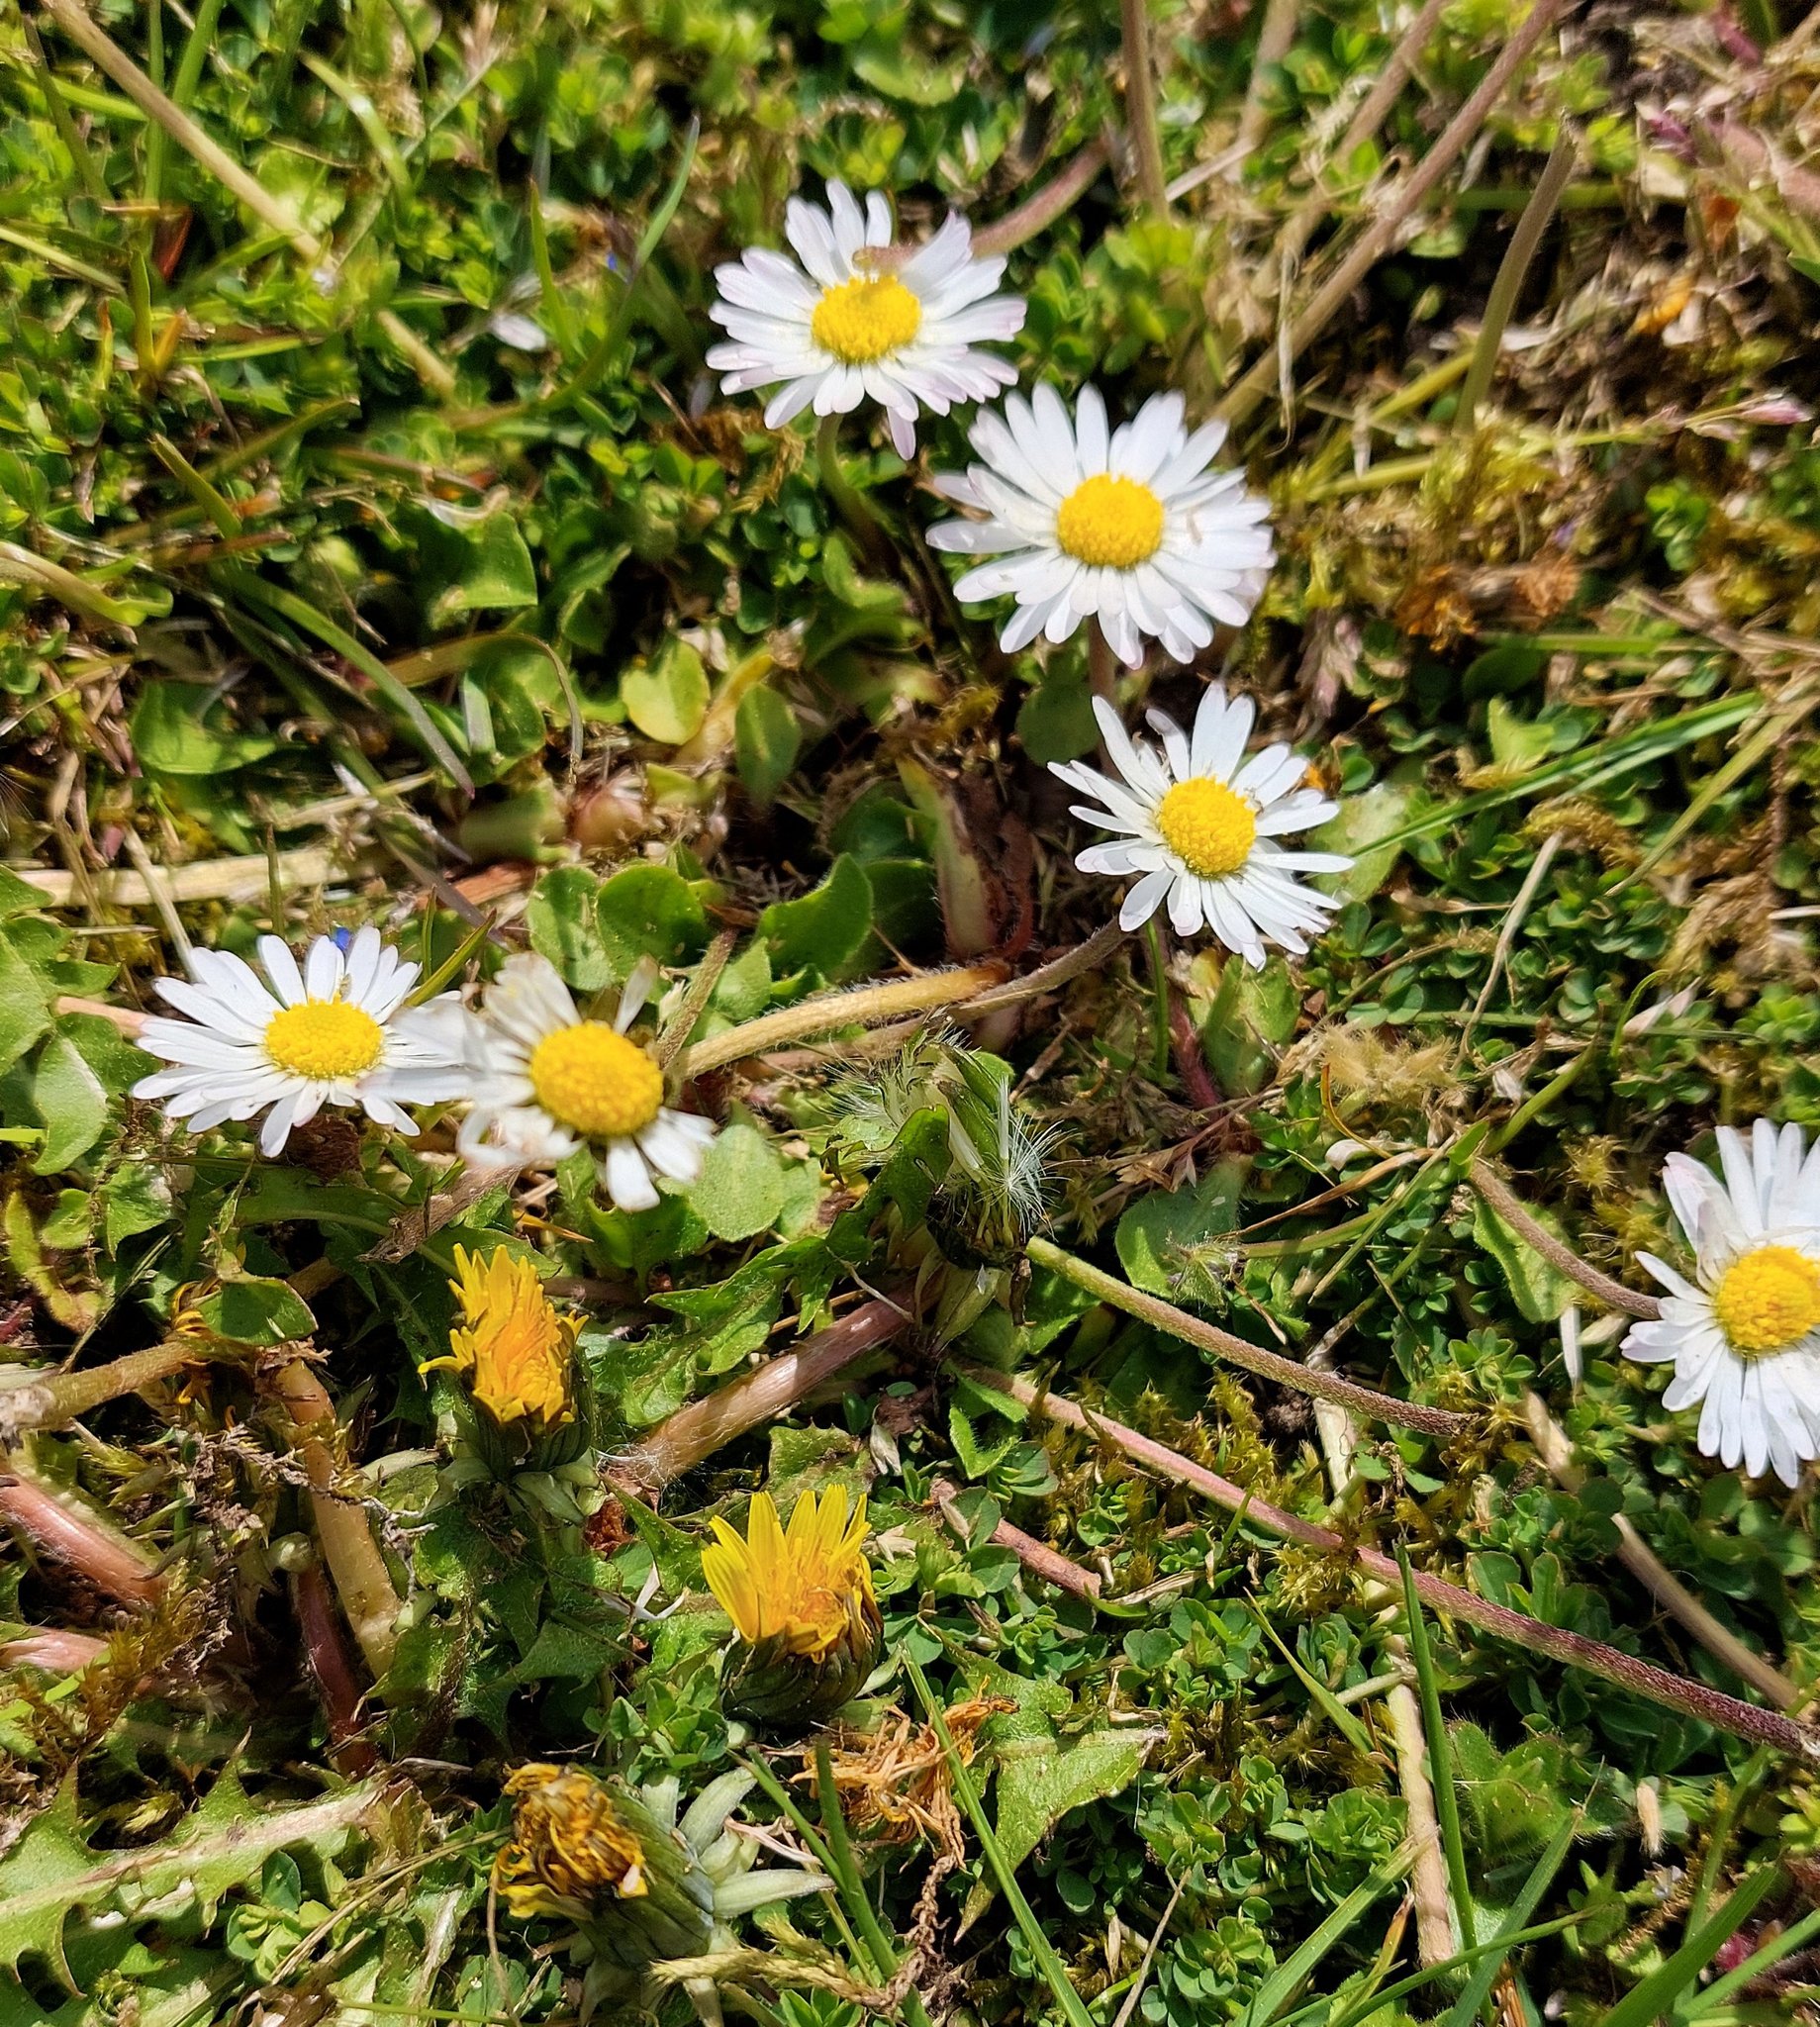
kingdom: Plantae
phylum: Tracheophyta
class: Magnoliopsida
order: Asterales
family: Asteraceae
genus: Bellis
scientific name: Bellis perennis
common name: Lawndaisy
